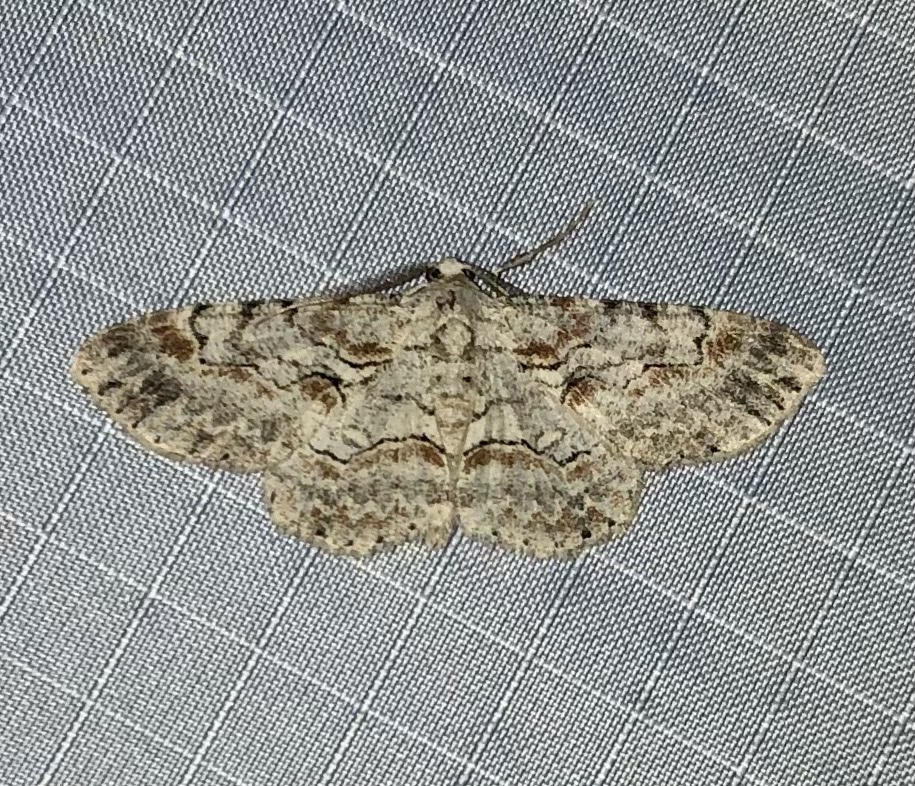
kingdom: Animalia
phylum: Arthropoda
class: Insecta
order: Lepidoptera
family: Geometridae
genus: Iridopsis
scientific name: Iridopsis defectaria
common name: Brown-shaded gray
